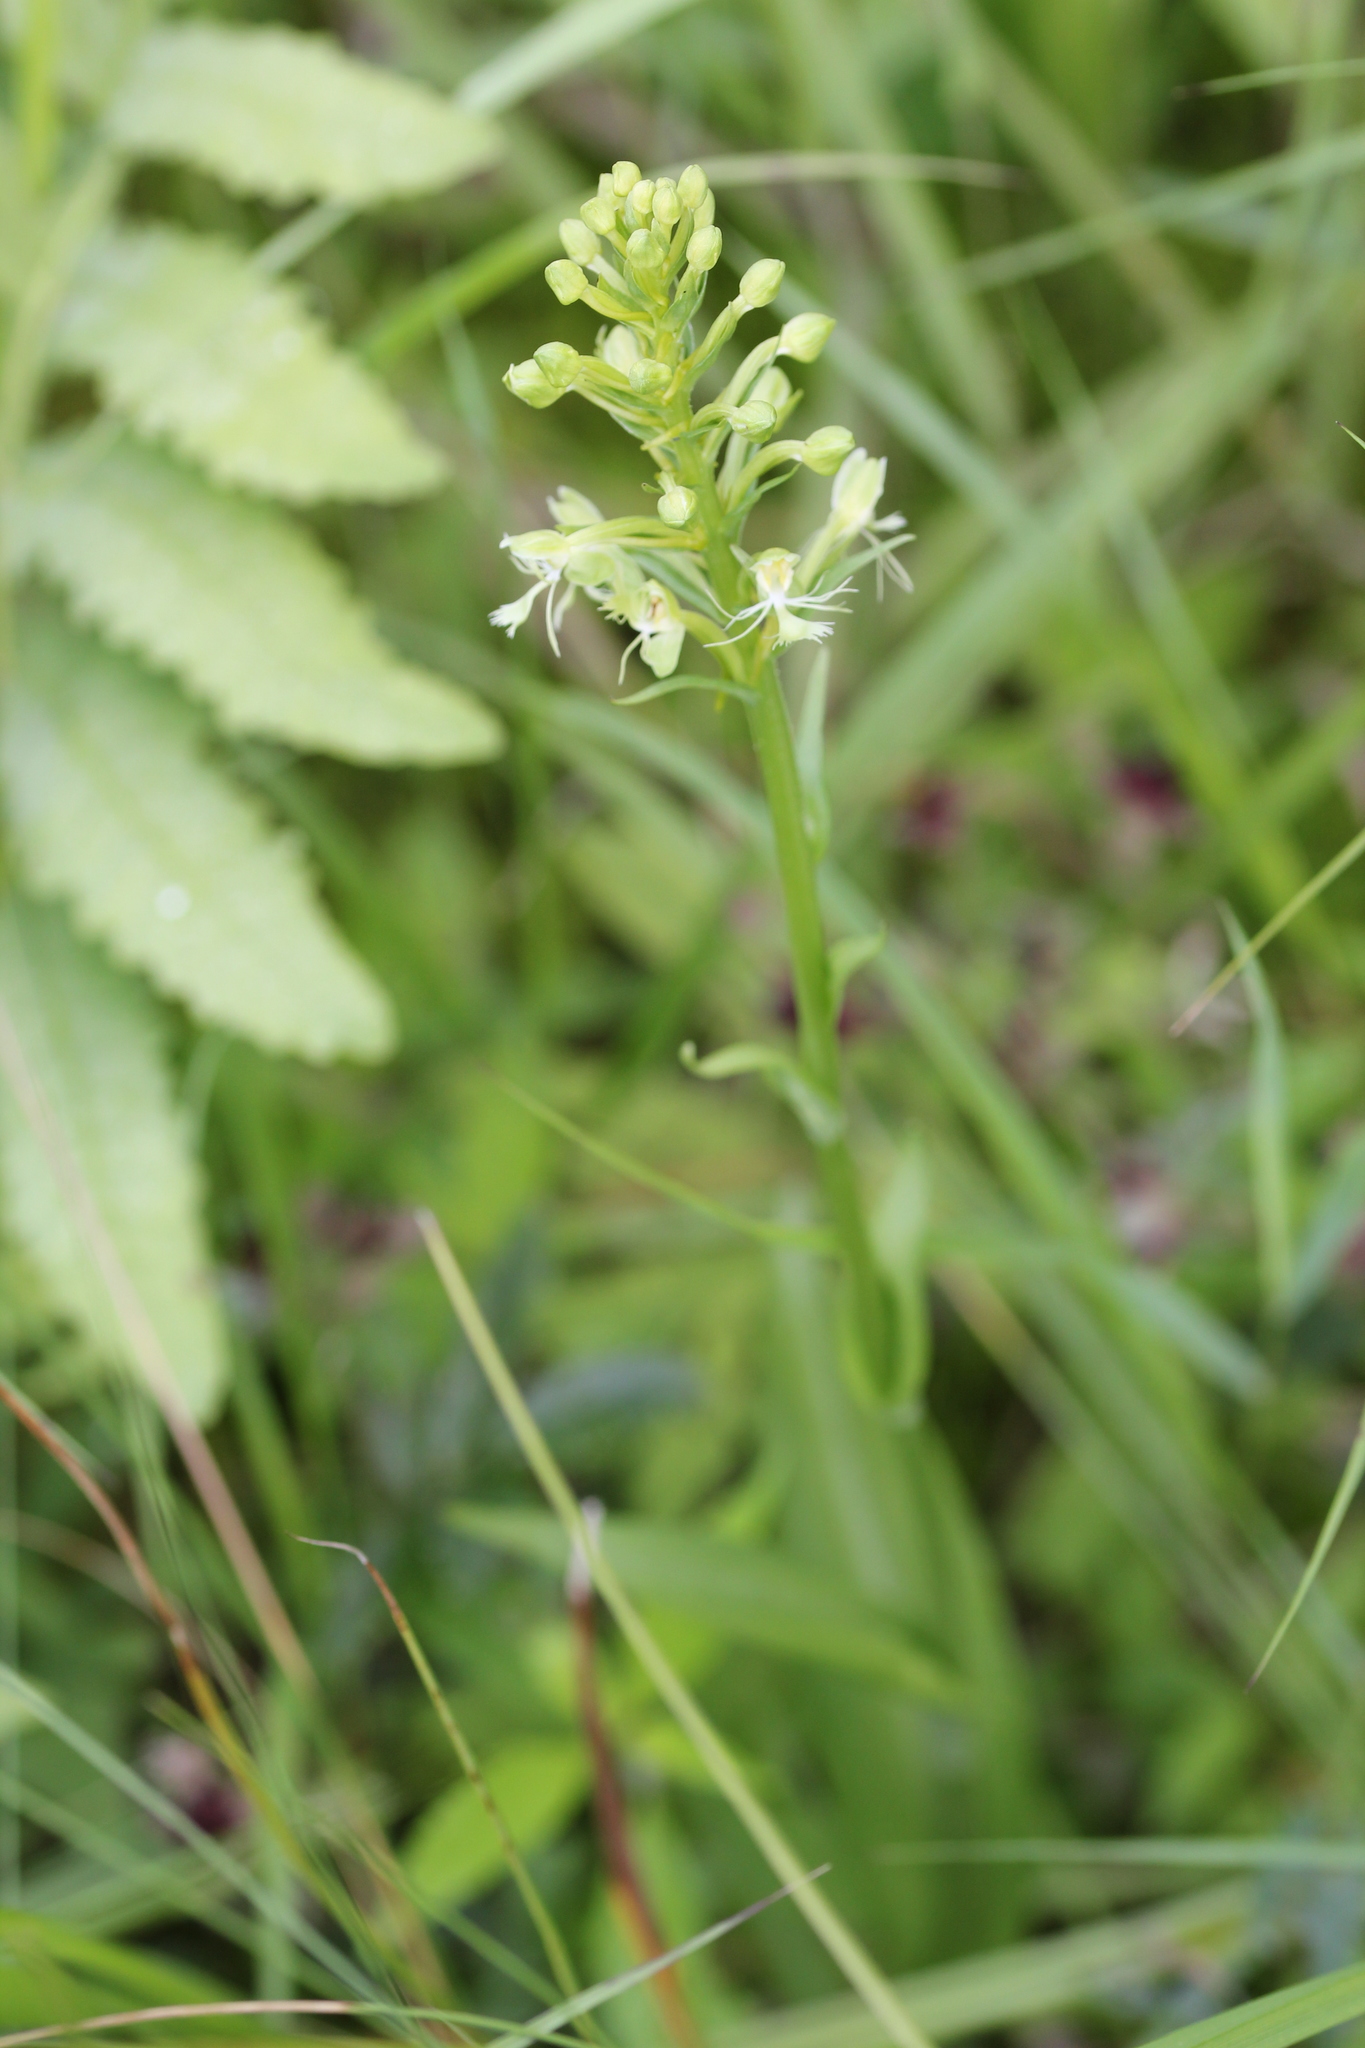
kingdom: Plantae
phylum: Tracheophyta
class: Liliopsida
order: Asparagales
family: Orchidaceae
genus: Platanthera
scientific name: Platanthera lacera
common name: Green fringed orchid
